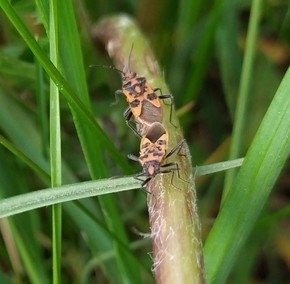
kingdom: Animalia
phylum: Arthropoda
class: Insecta
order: Hemiptera
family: Rhopalidae
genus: Corizus
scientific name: Corizus hyoscyami
